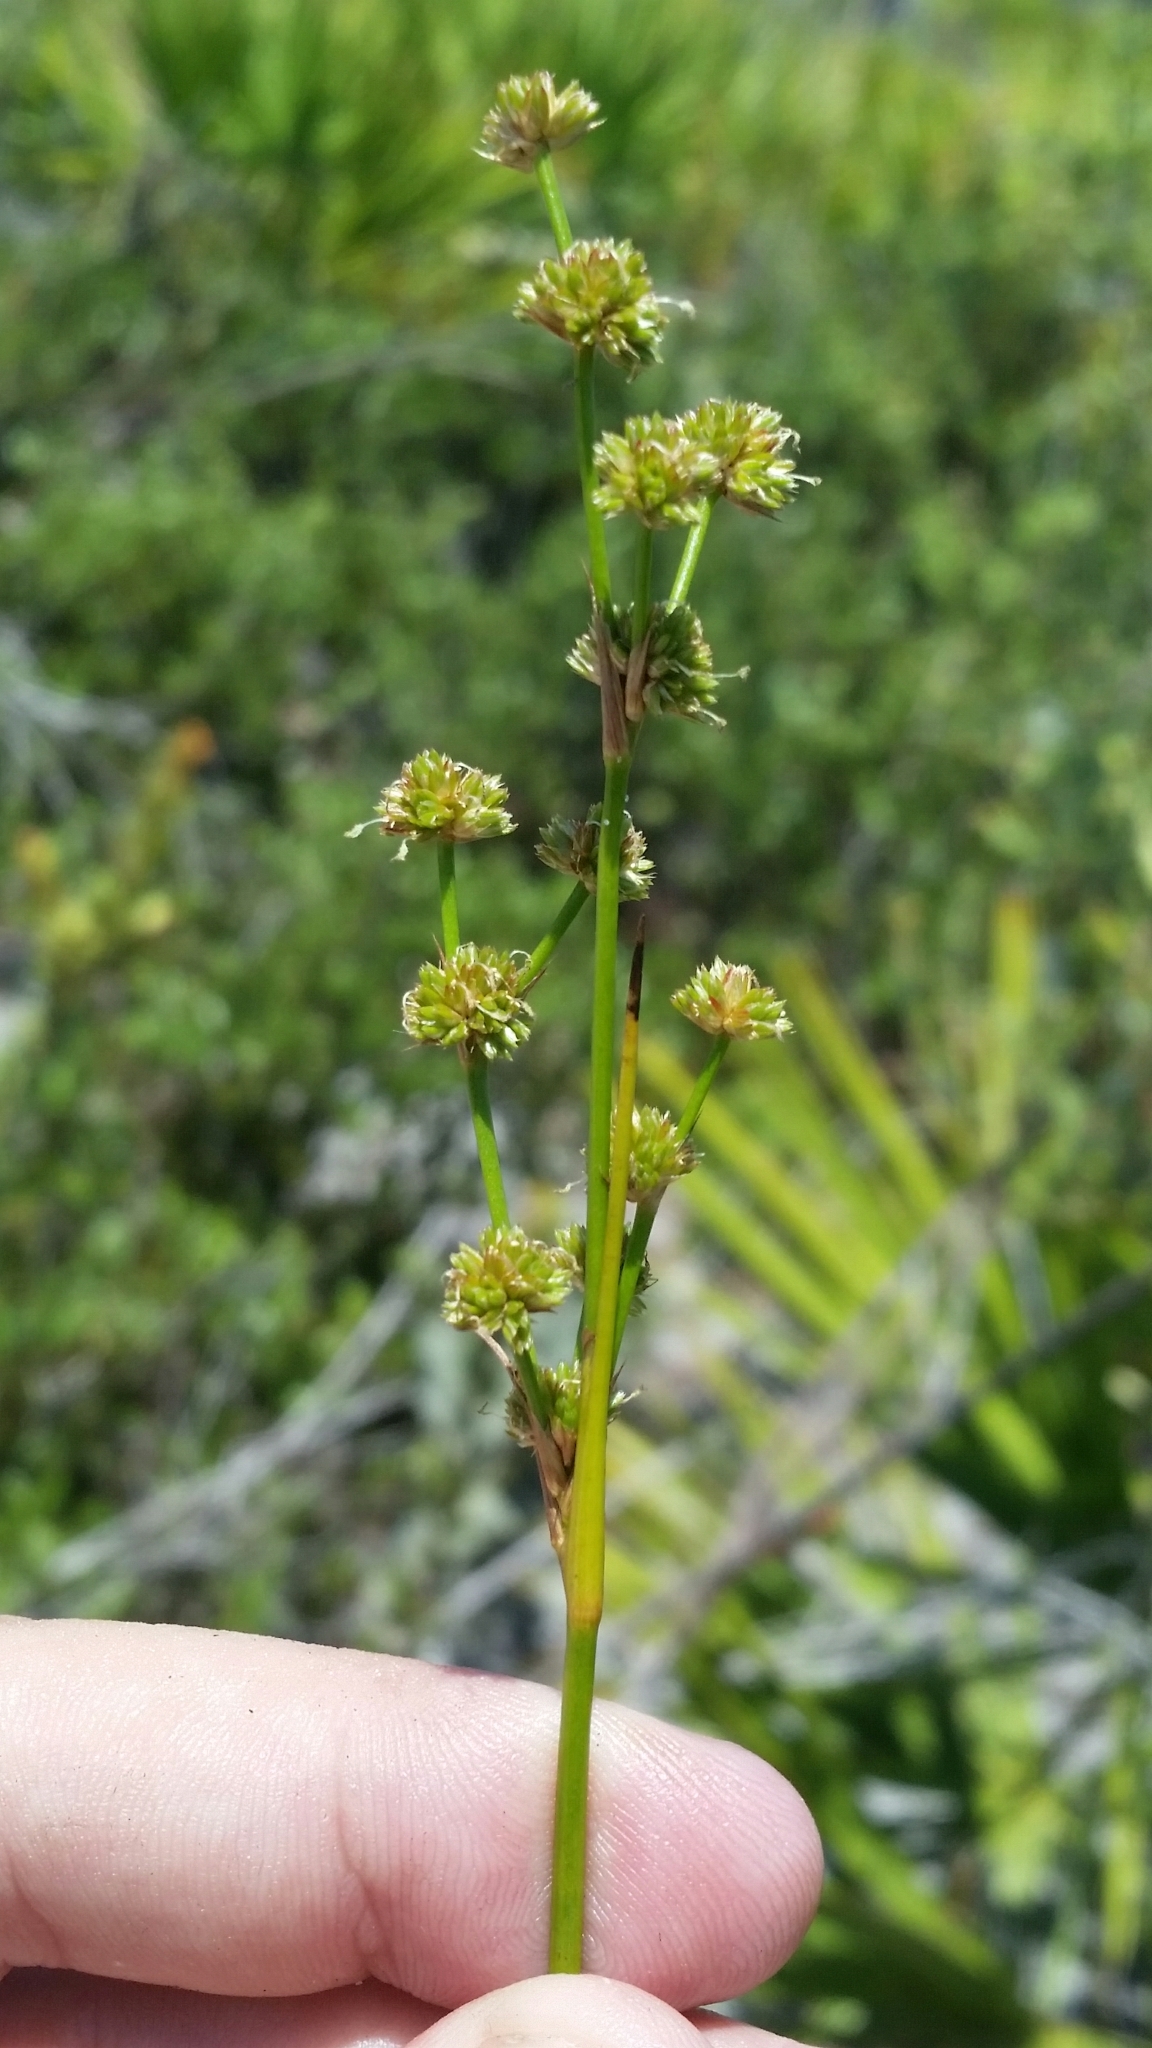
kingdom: Plantae
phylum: Tracheophyta
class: Liliopsida
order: Poales
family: Juncaceae
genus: Juncus
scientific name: Juncus scirpoides
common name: Needlepod rush
